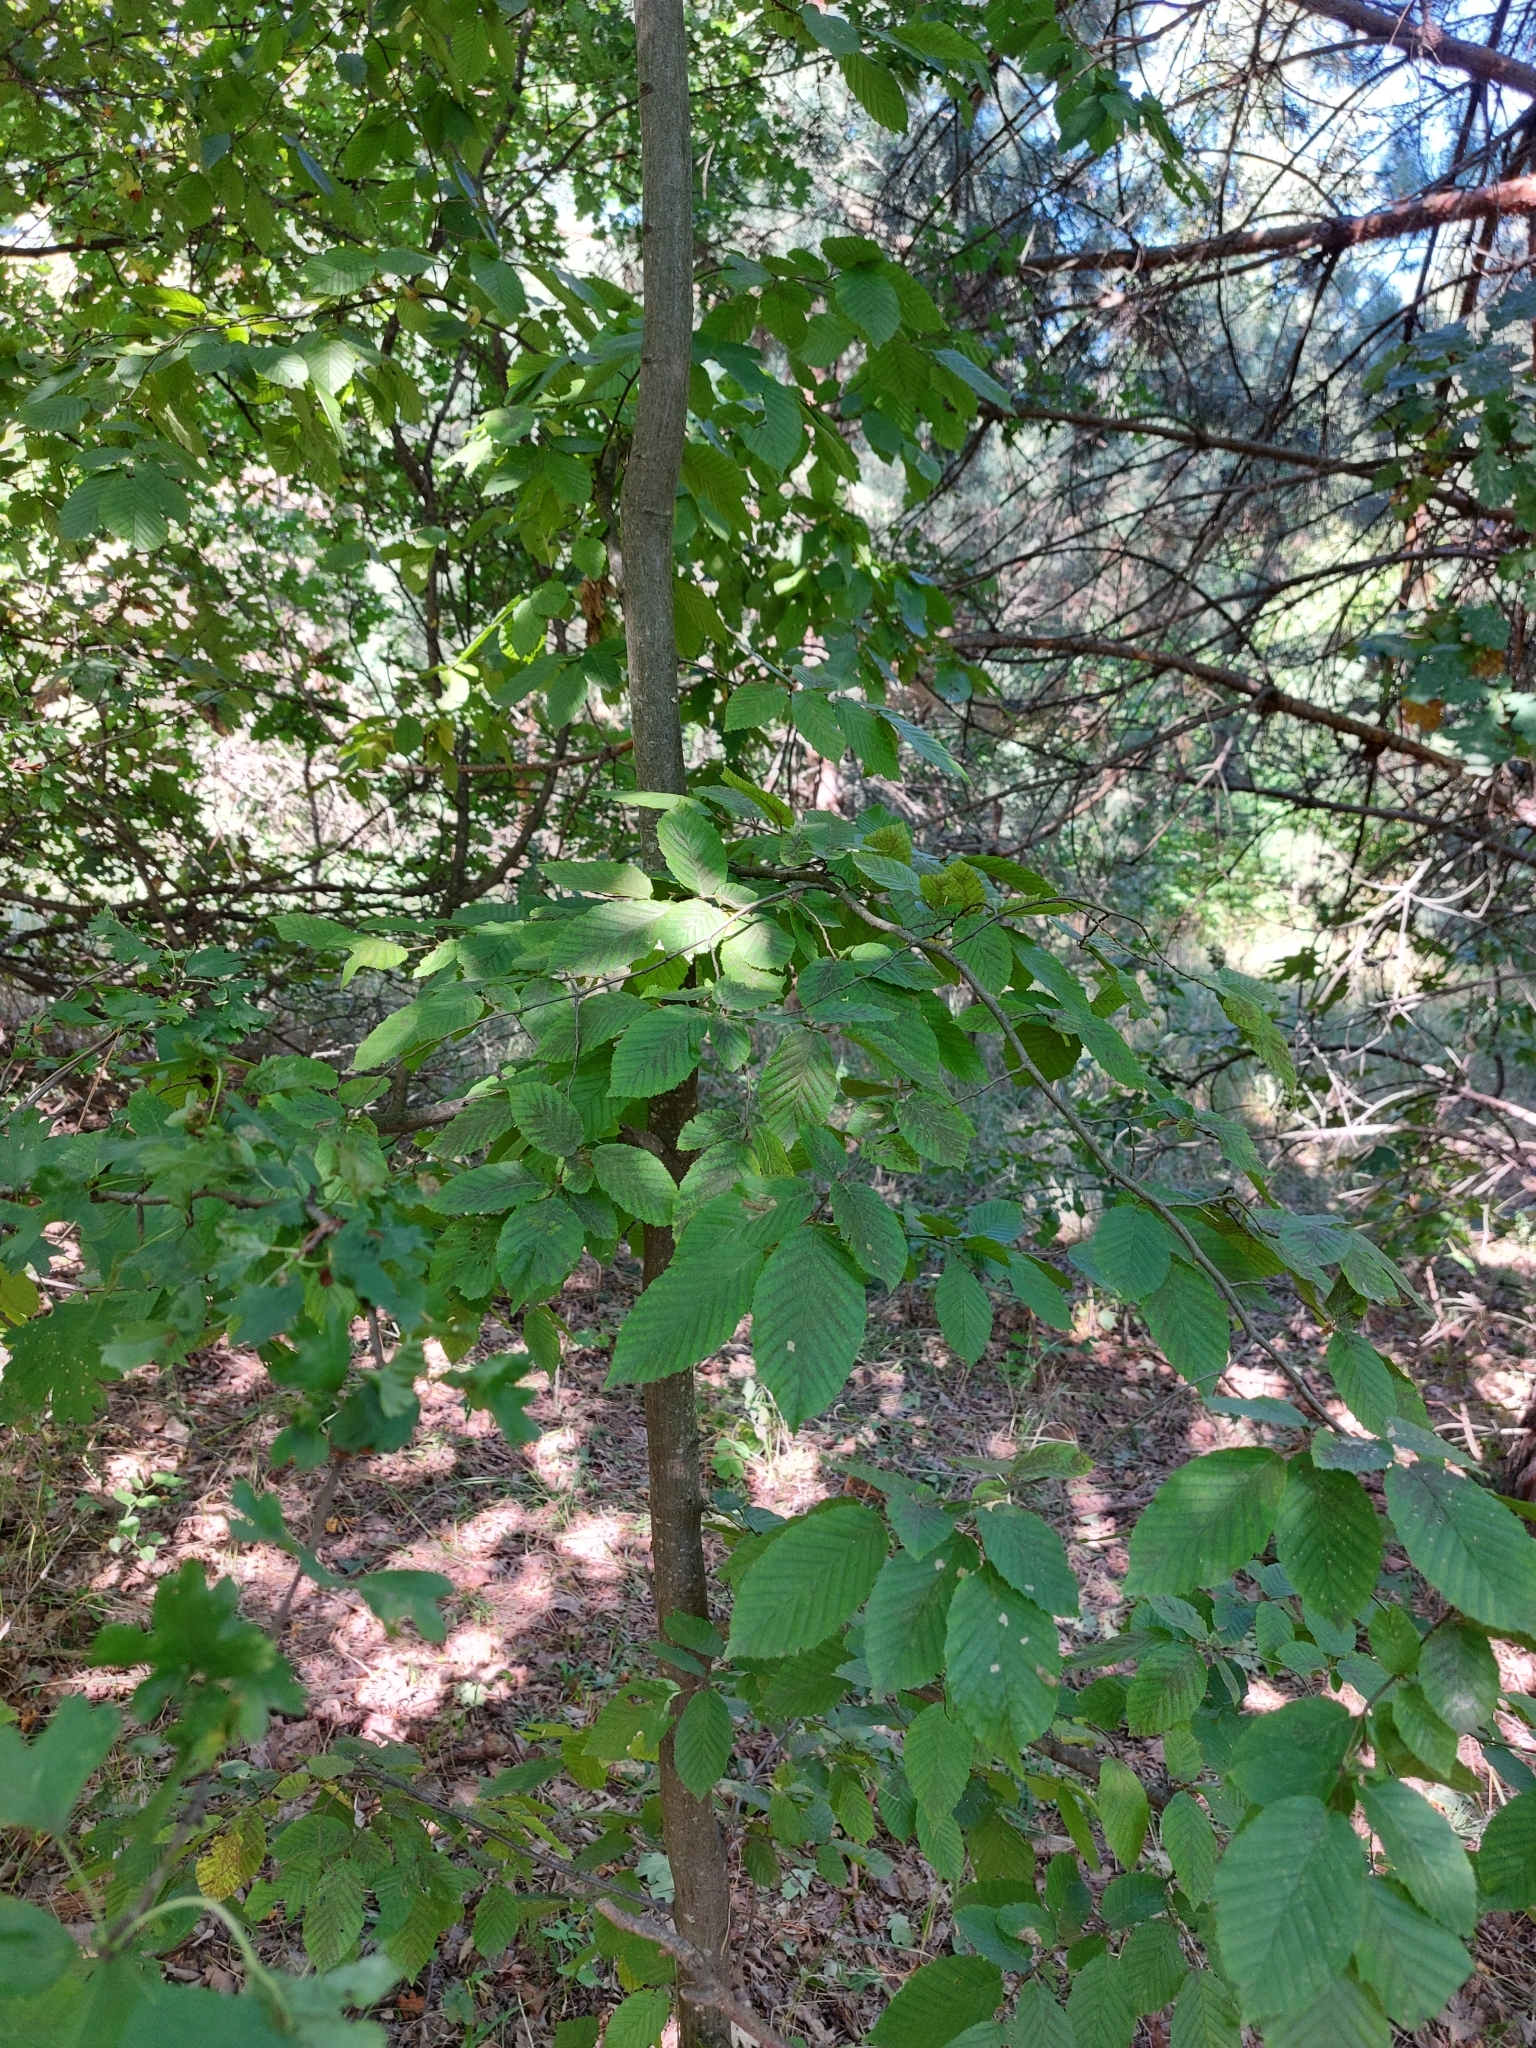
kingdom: Plantae
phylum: Tracheophyta
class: Magnoliopsida
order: Fagales
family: Betulaceae
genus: Carpinus
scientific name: Carpinus betulus
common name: Hornbeam
